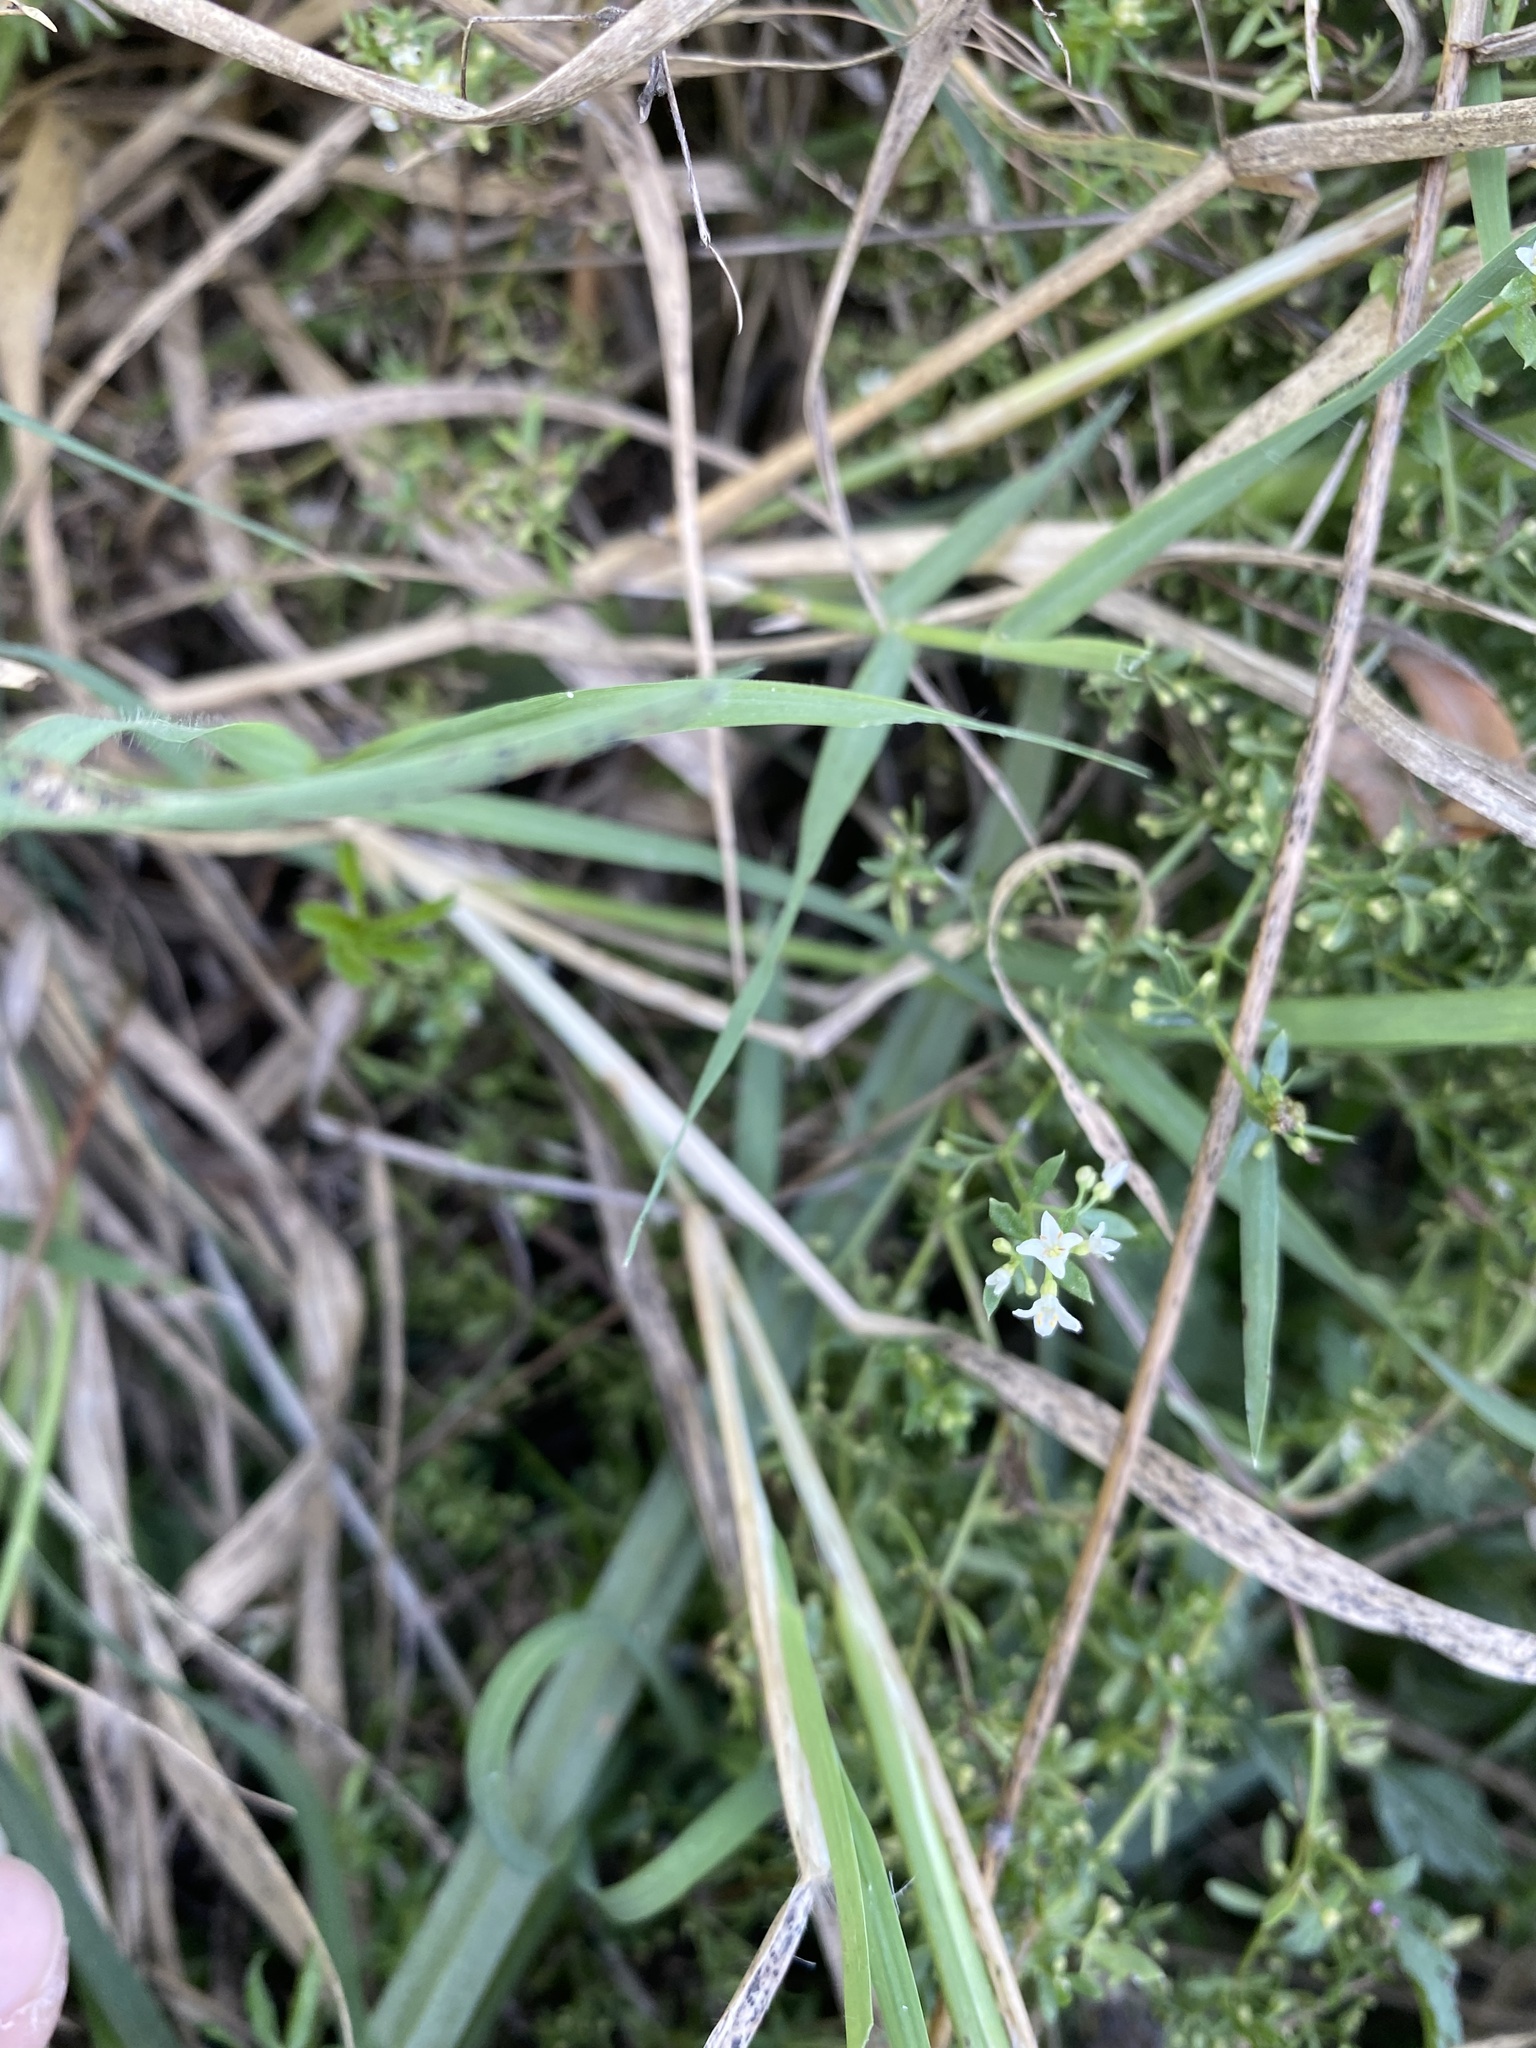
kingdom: Plantae
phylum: Tracheophyta
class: Magnoliopsida
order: Gentianales
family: Rubiaceae
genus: Galium
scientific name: Galium humifusum
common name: Spreading bedstraw
